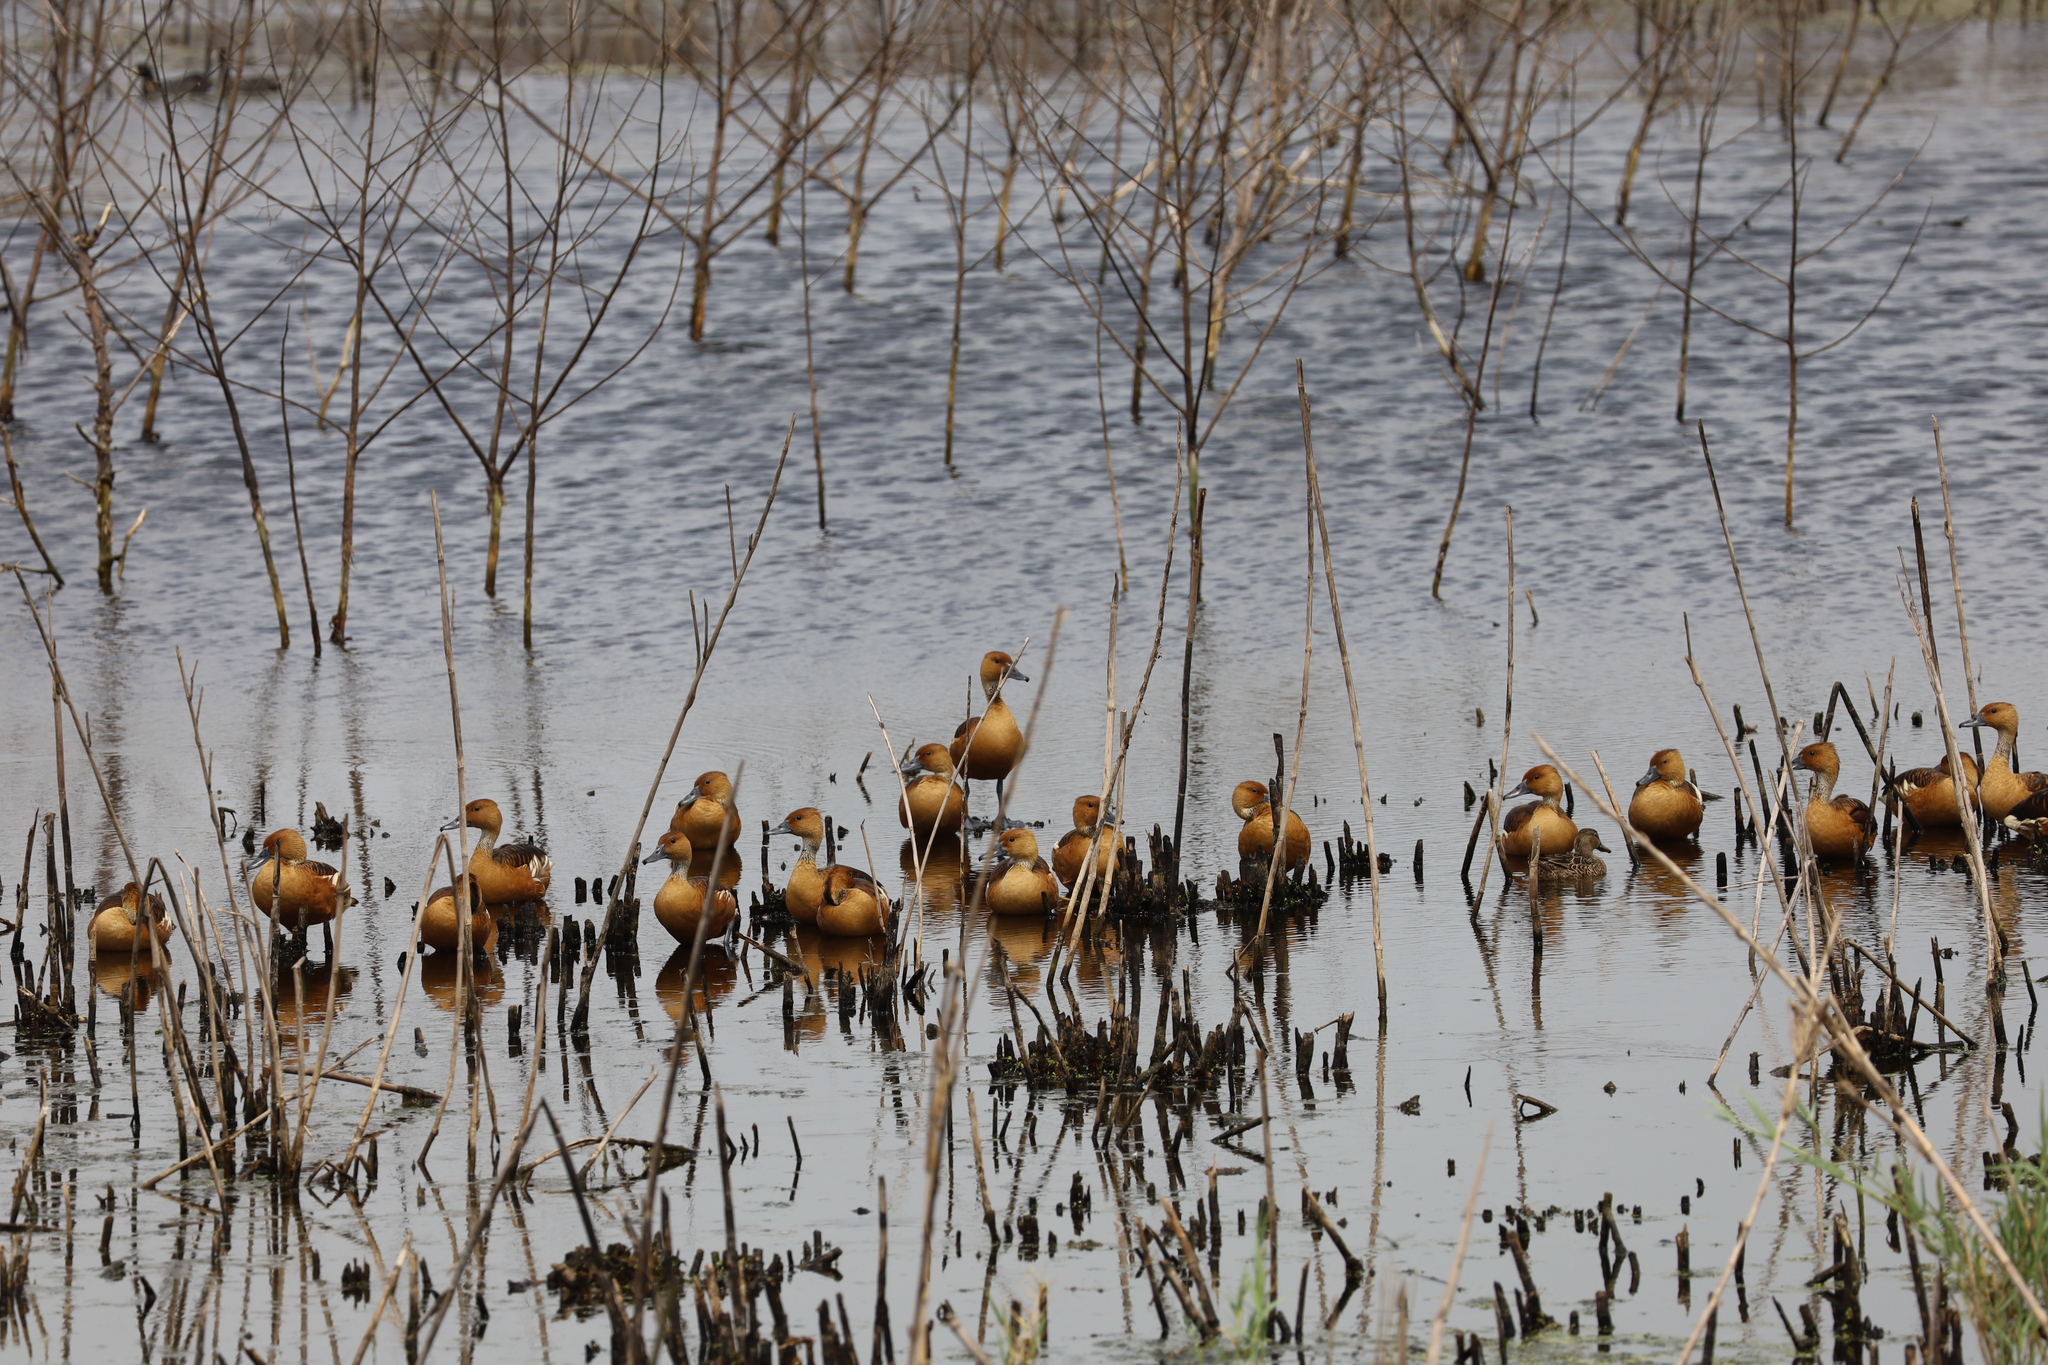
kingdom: Animalia
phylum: Chordata
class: Aves
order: Anseriformes
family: Anatidae
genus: Dendrocygna
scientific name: Dendrocygna bicolor
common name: Fulvous whistling duck
